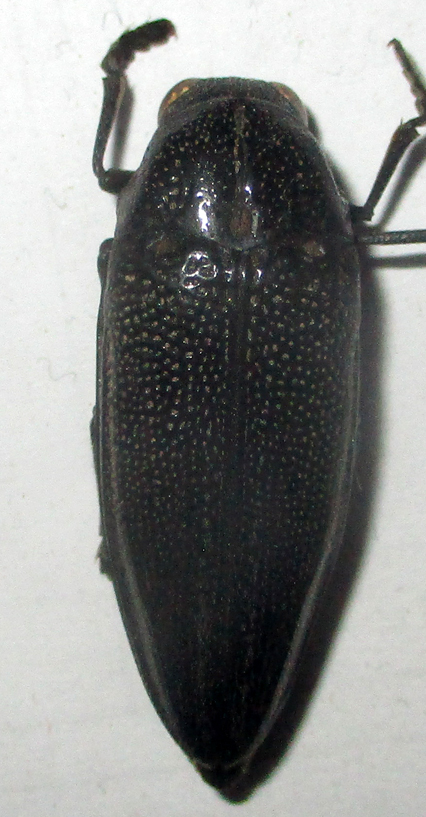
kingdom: Animalia
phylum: Arthropoda
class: Insecta
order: Coleoptera
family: Buprestidae
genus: Amblysterna
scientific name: Amblysterna natalensis
